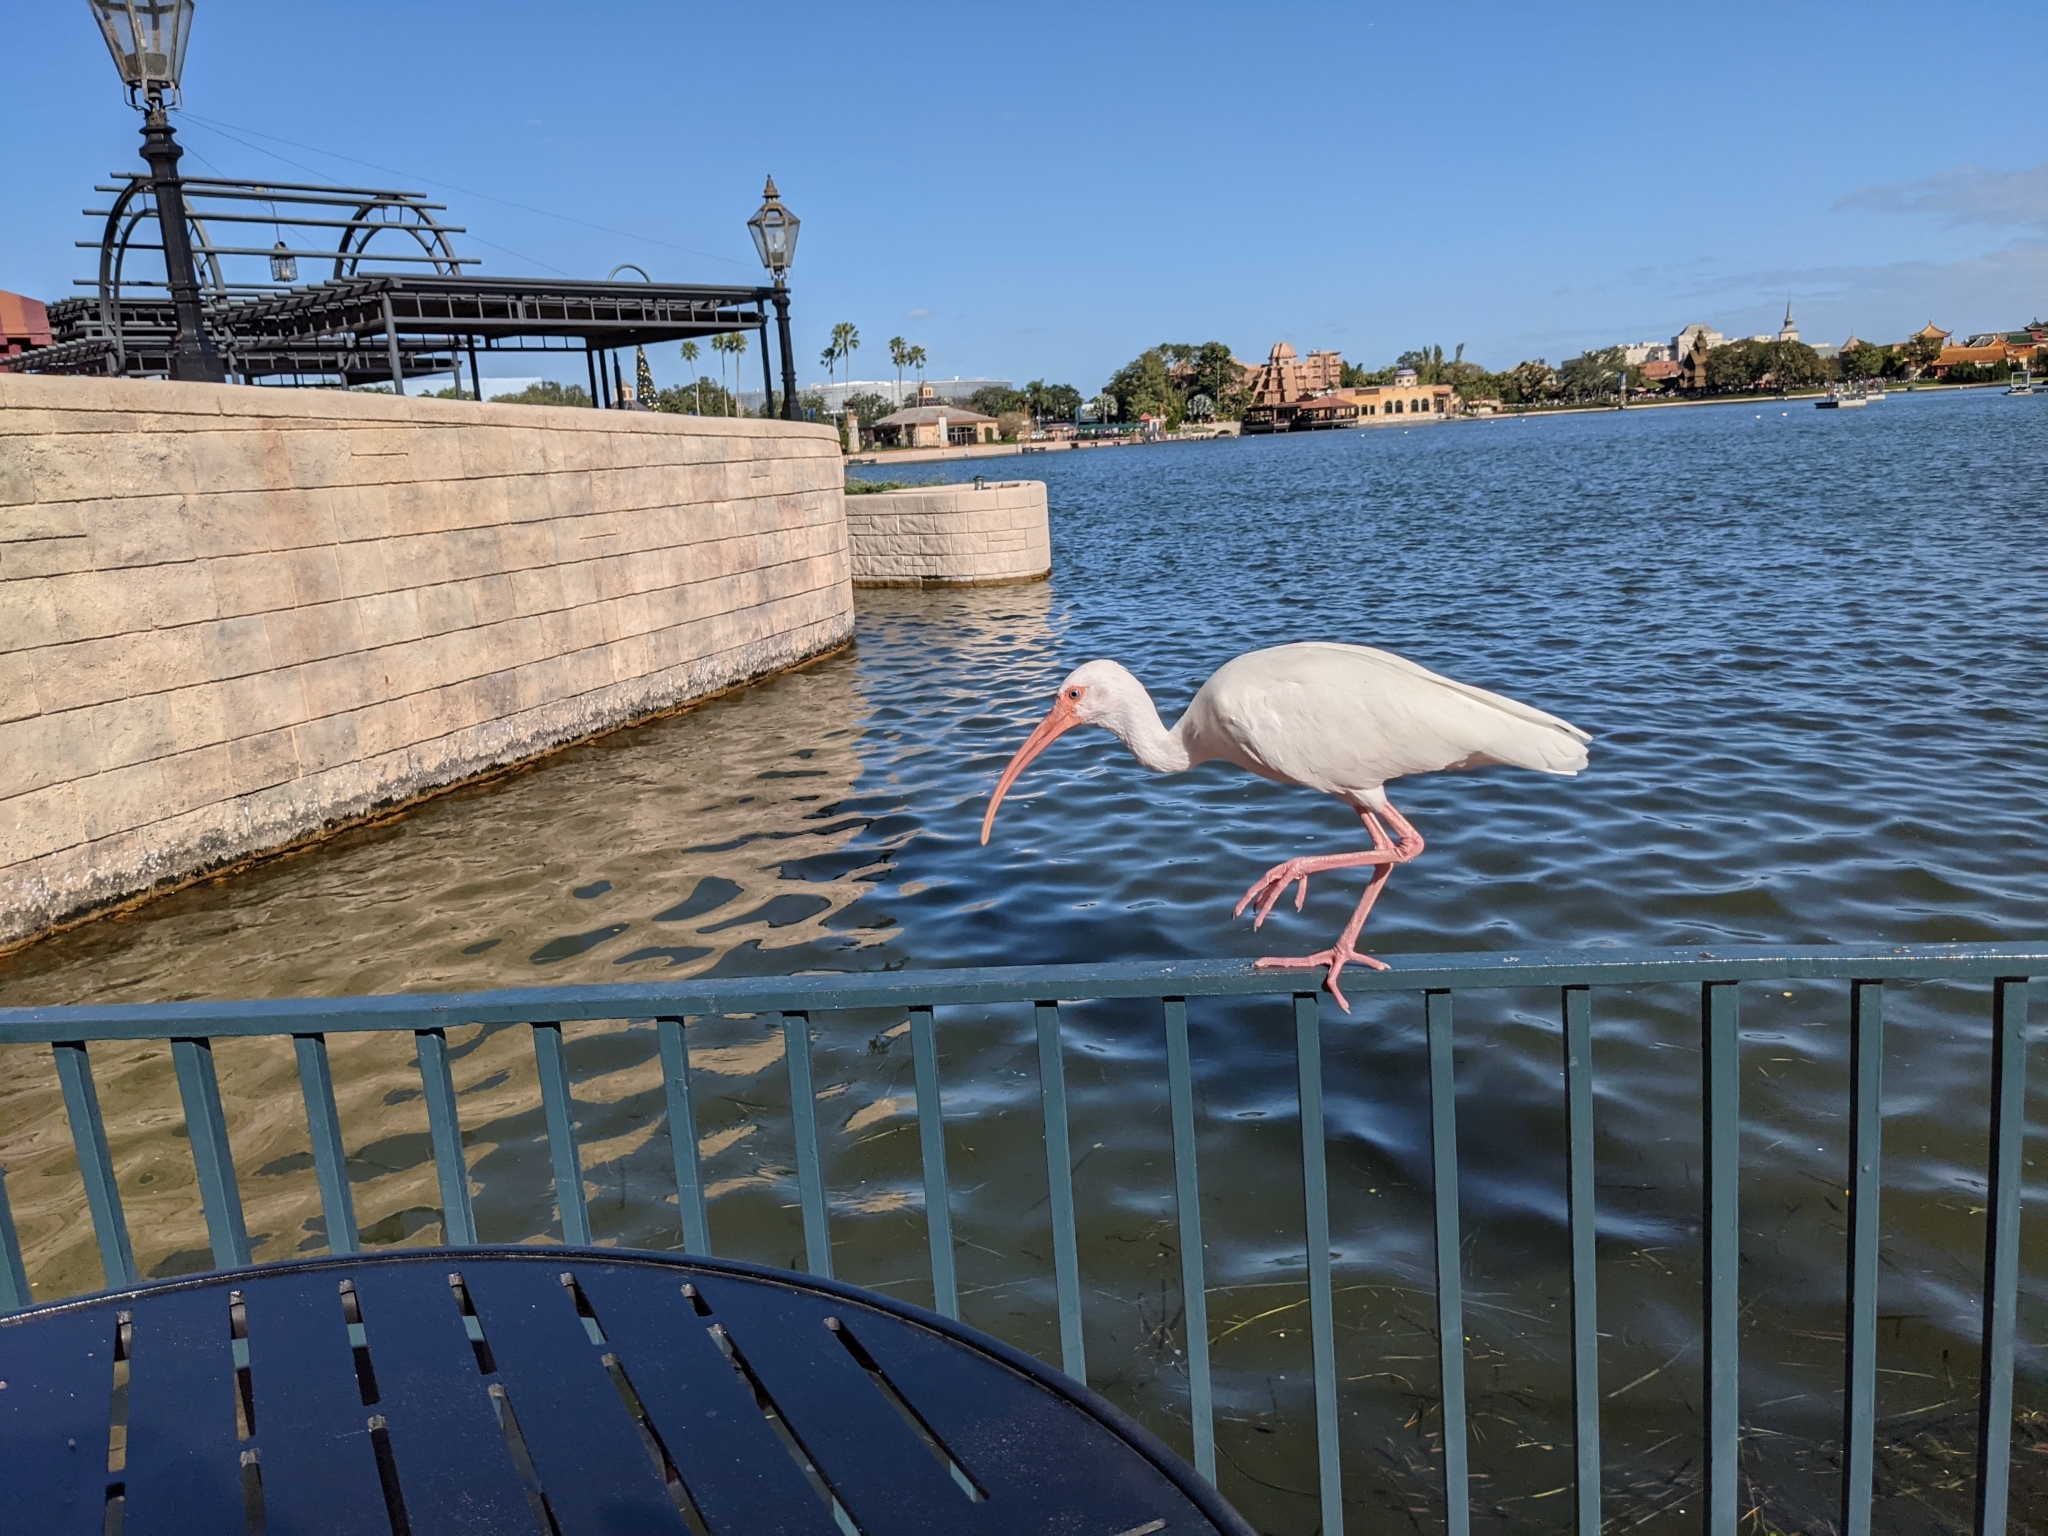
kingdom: Animalia
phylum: Chordata
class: Aves
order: Pelecaniformes
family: Threskiornithidae
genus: Eudocimus
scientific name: Eudocimus albus
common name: White ibis
